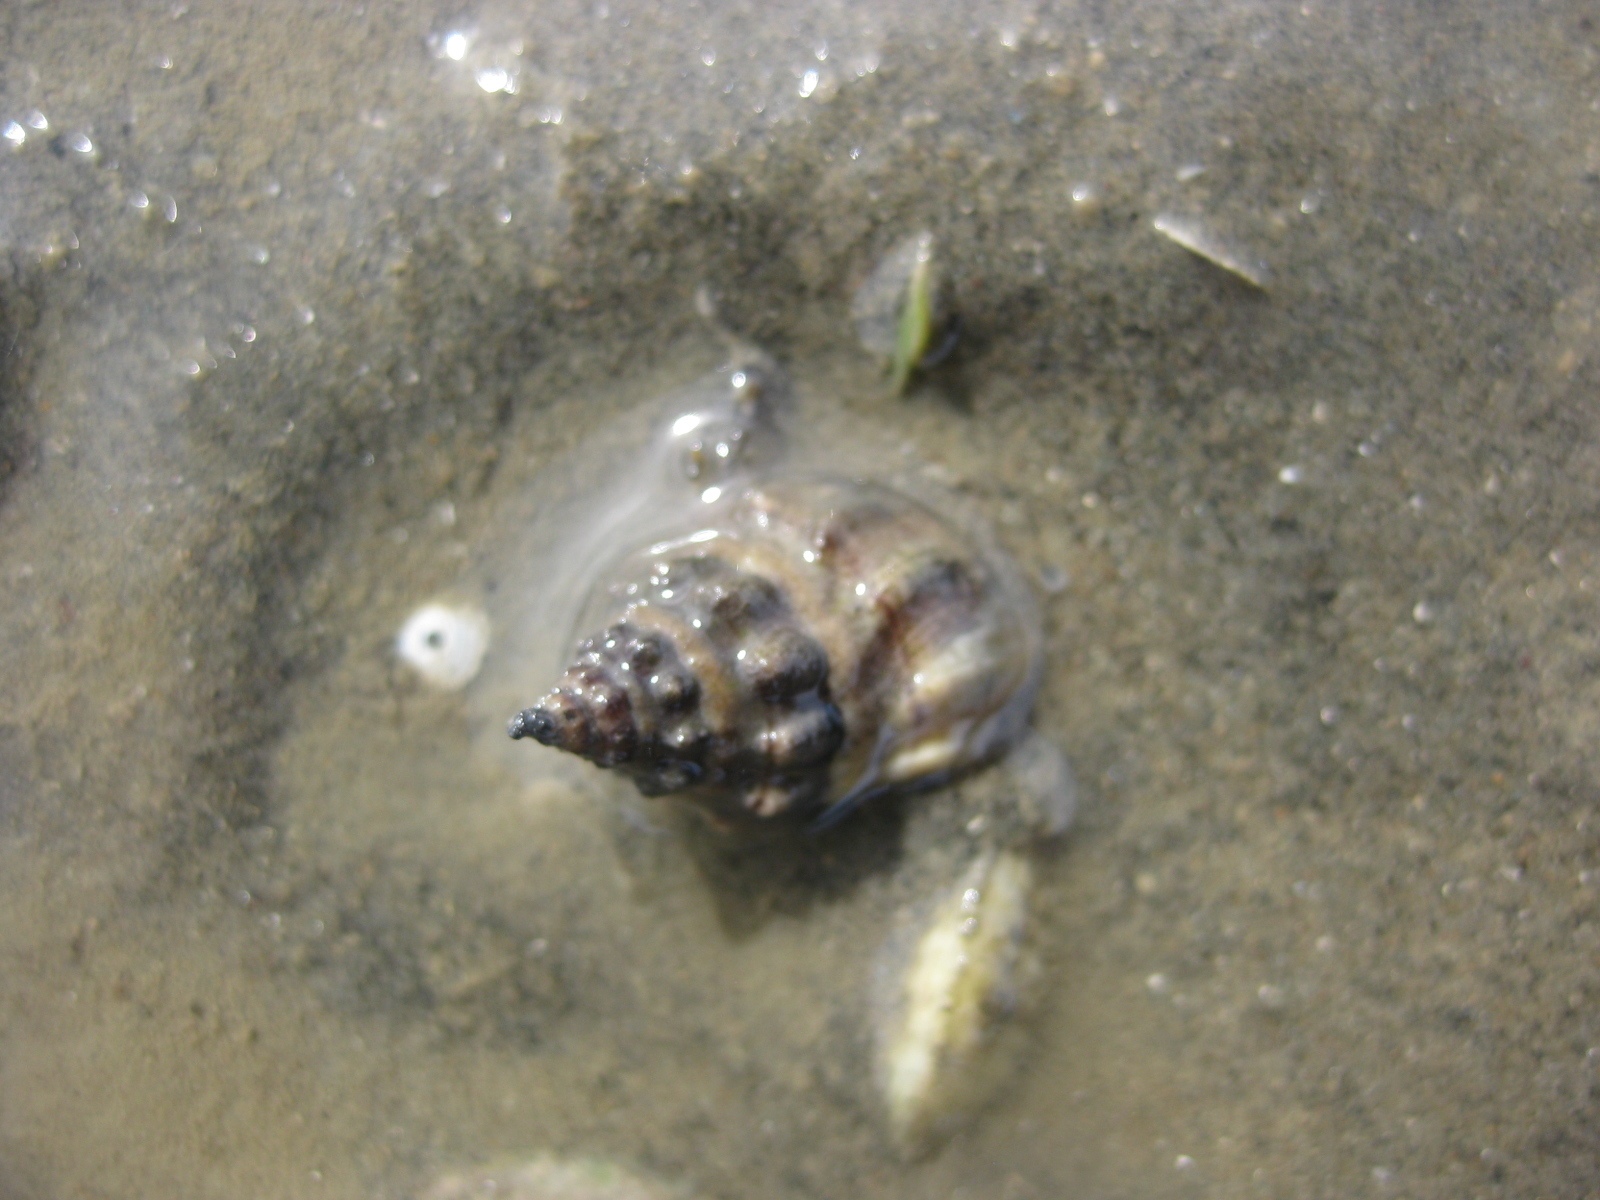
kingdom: Animalia
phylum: Mollusca
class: Gastropoda
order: Neogastropoda
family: Cominellidae
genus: Cominella
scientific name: Cominella glandiformis
